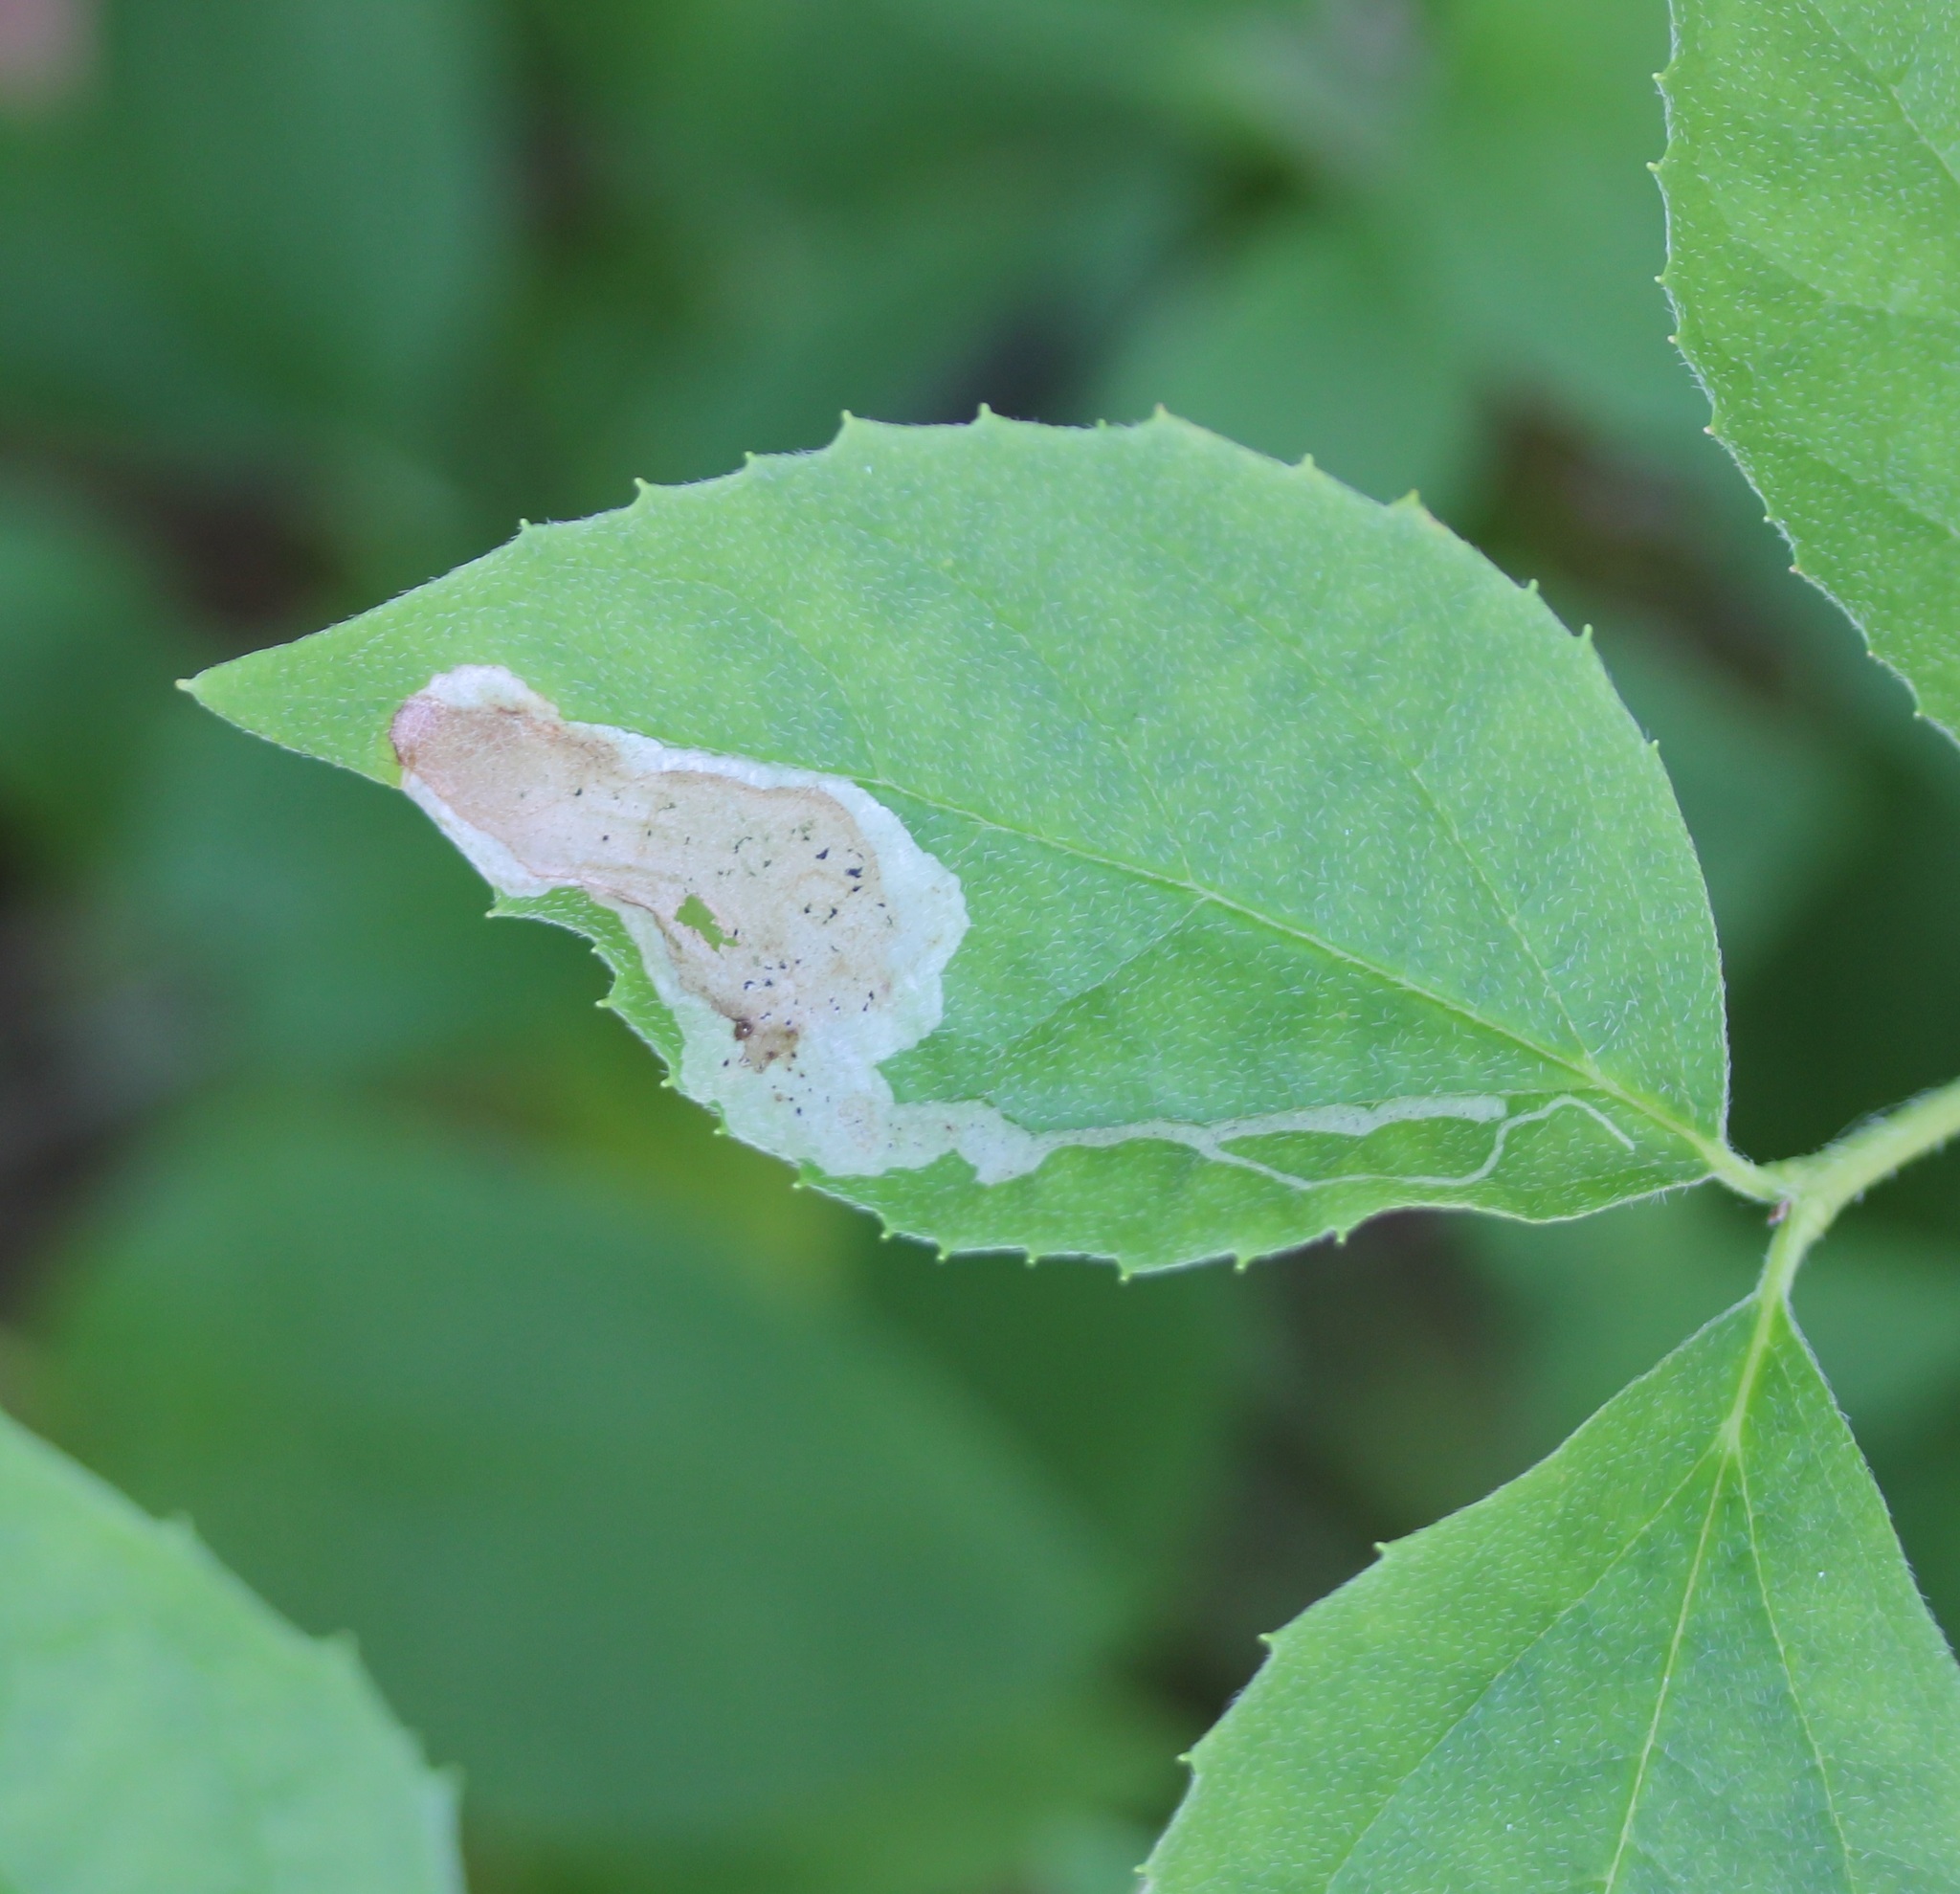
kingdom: Animalia
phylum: Arthropoda
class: Insecta
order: Diptera
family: Agromyzidae
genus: Liriomyza
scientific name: Liriomyza philadelphivora
